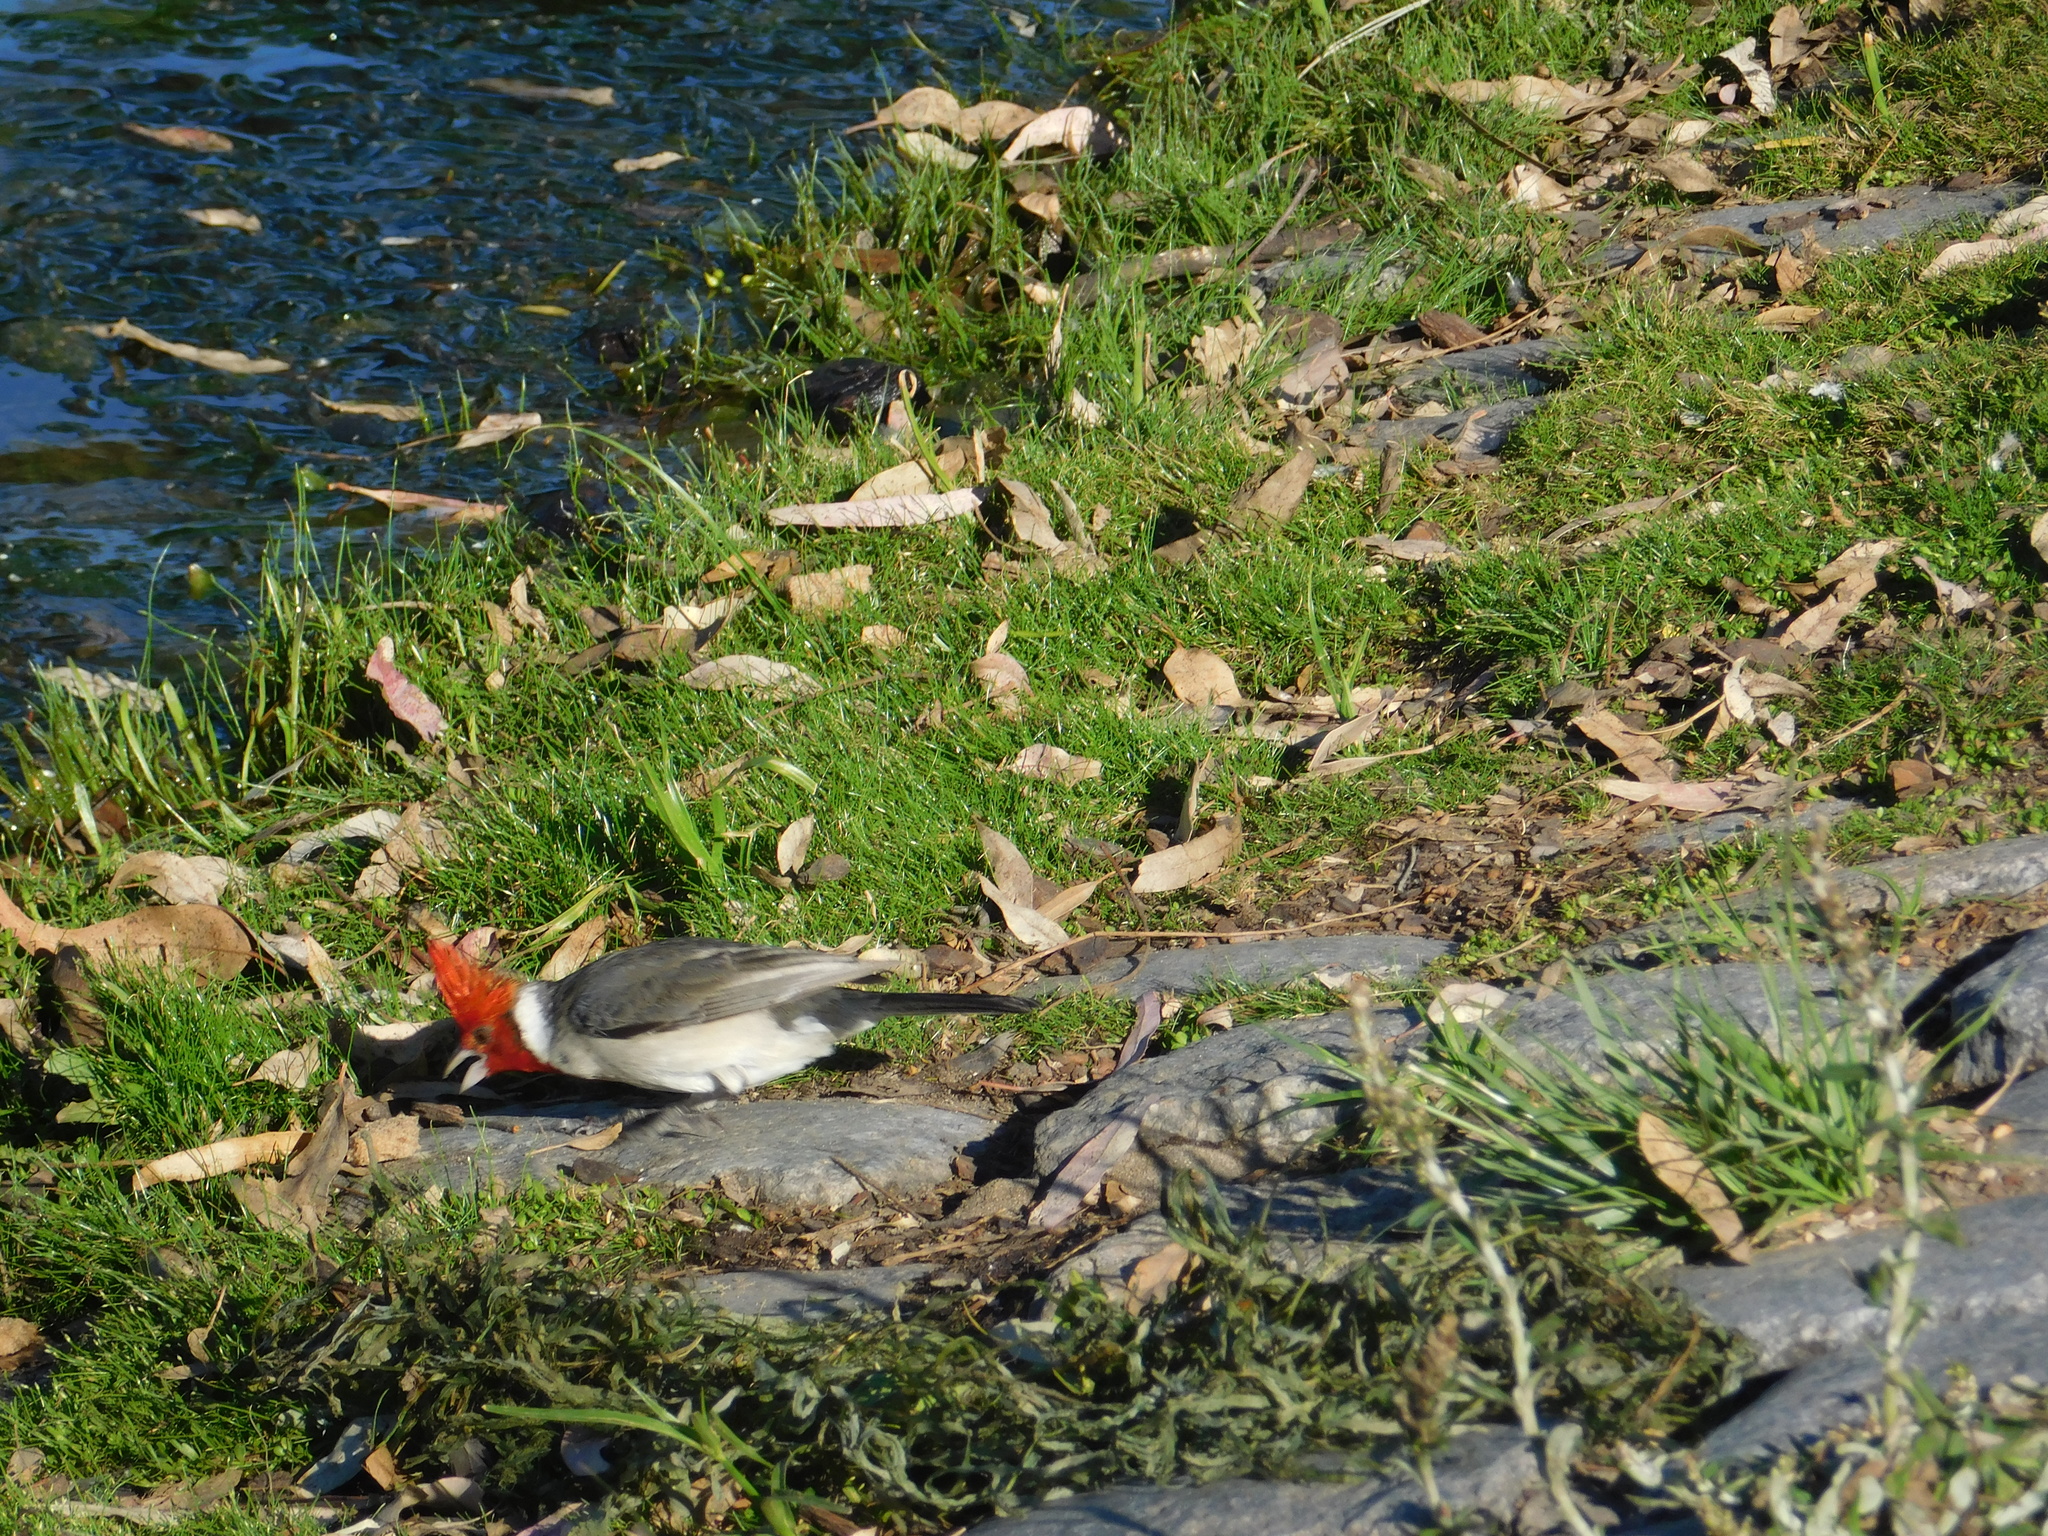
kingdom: Animalia
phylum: Chordata
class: Aves
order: Passeriformes
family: Thraupidae
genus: Paroaria
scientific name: Paroaria coronata
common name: Red-crested cardinal
